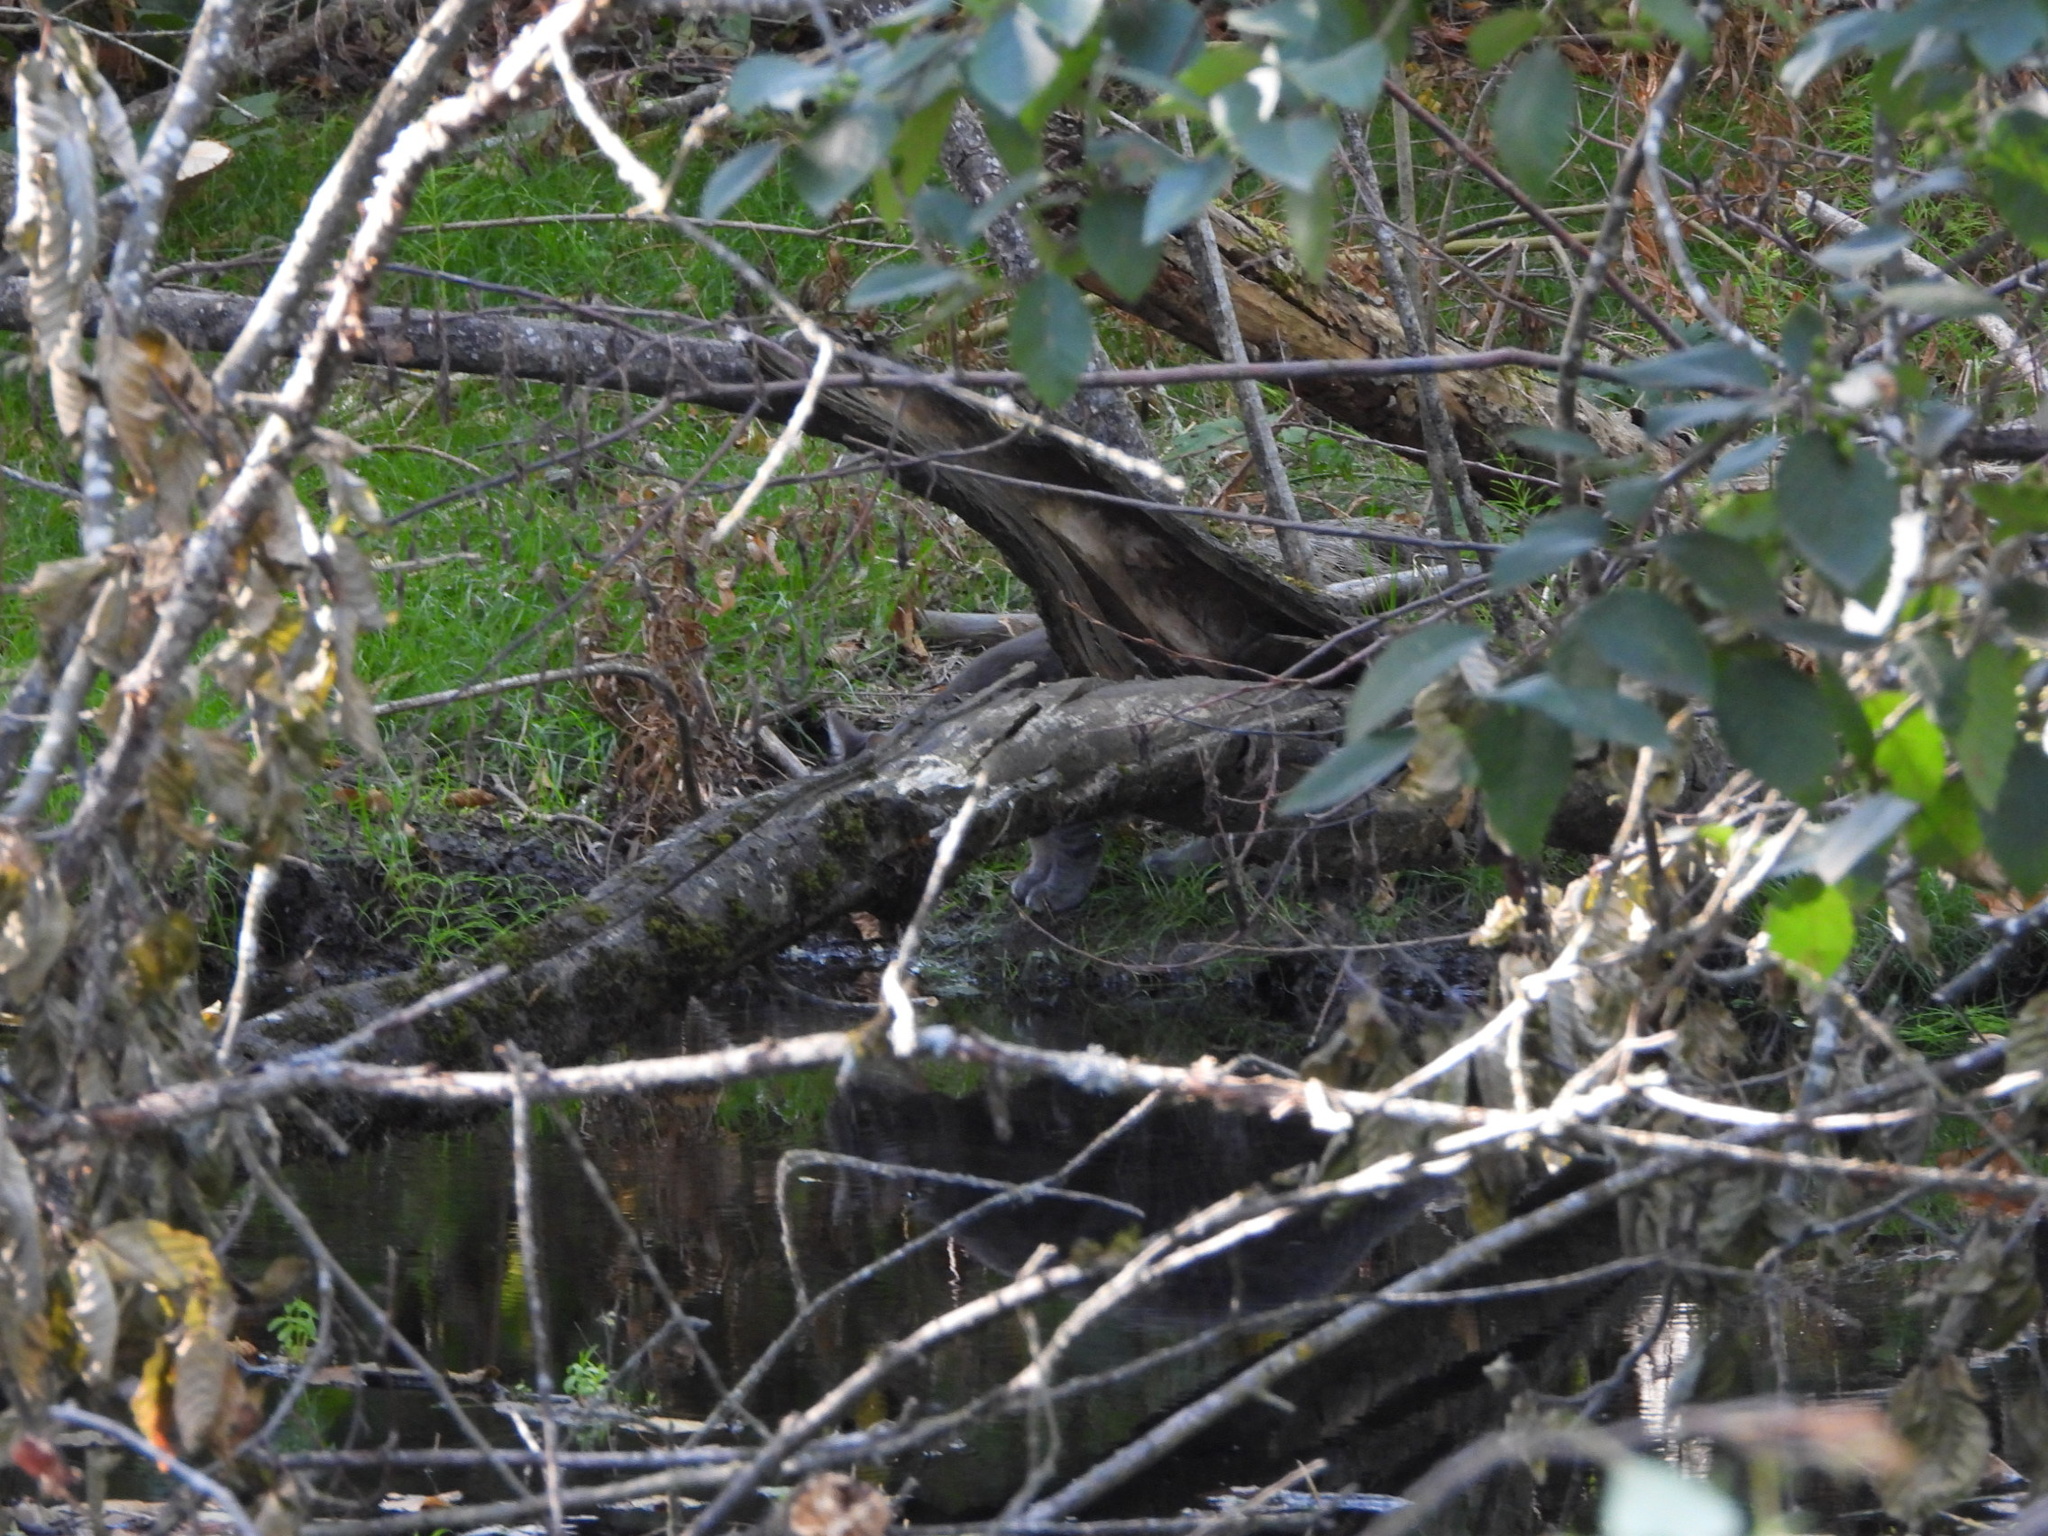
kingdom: Animalia
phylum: Chordata
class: Mammalia
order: Carnivora
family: Felidae
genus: Felis
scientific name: Felis catus
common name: Domestic cat
